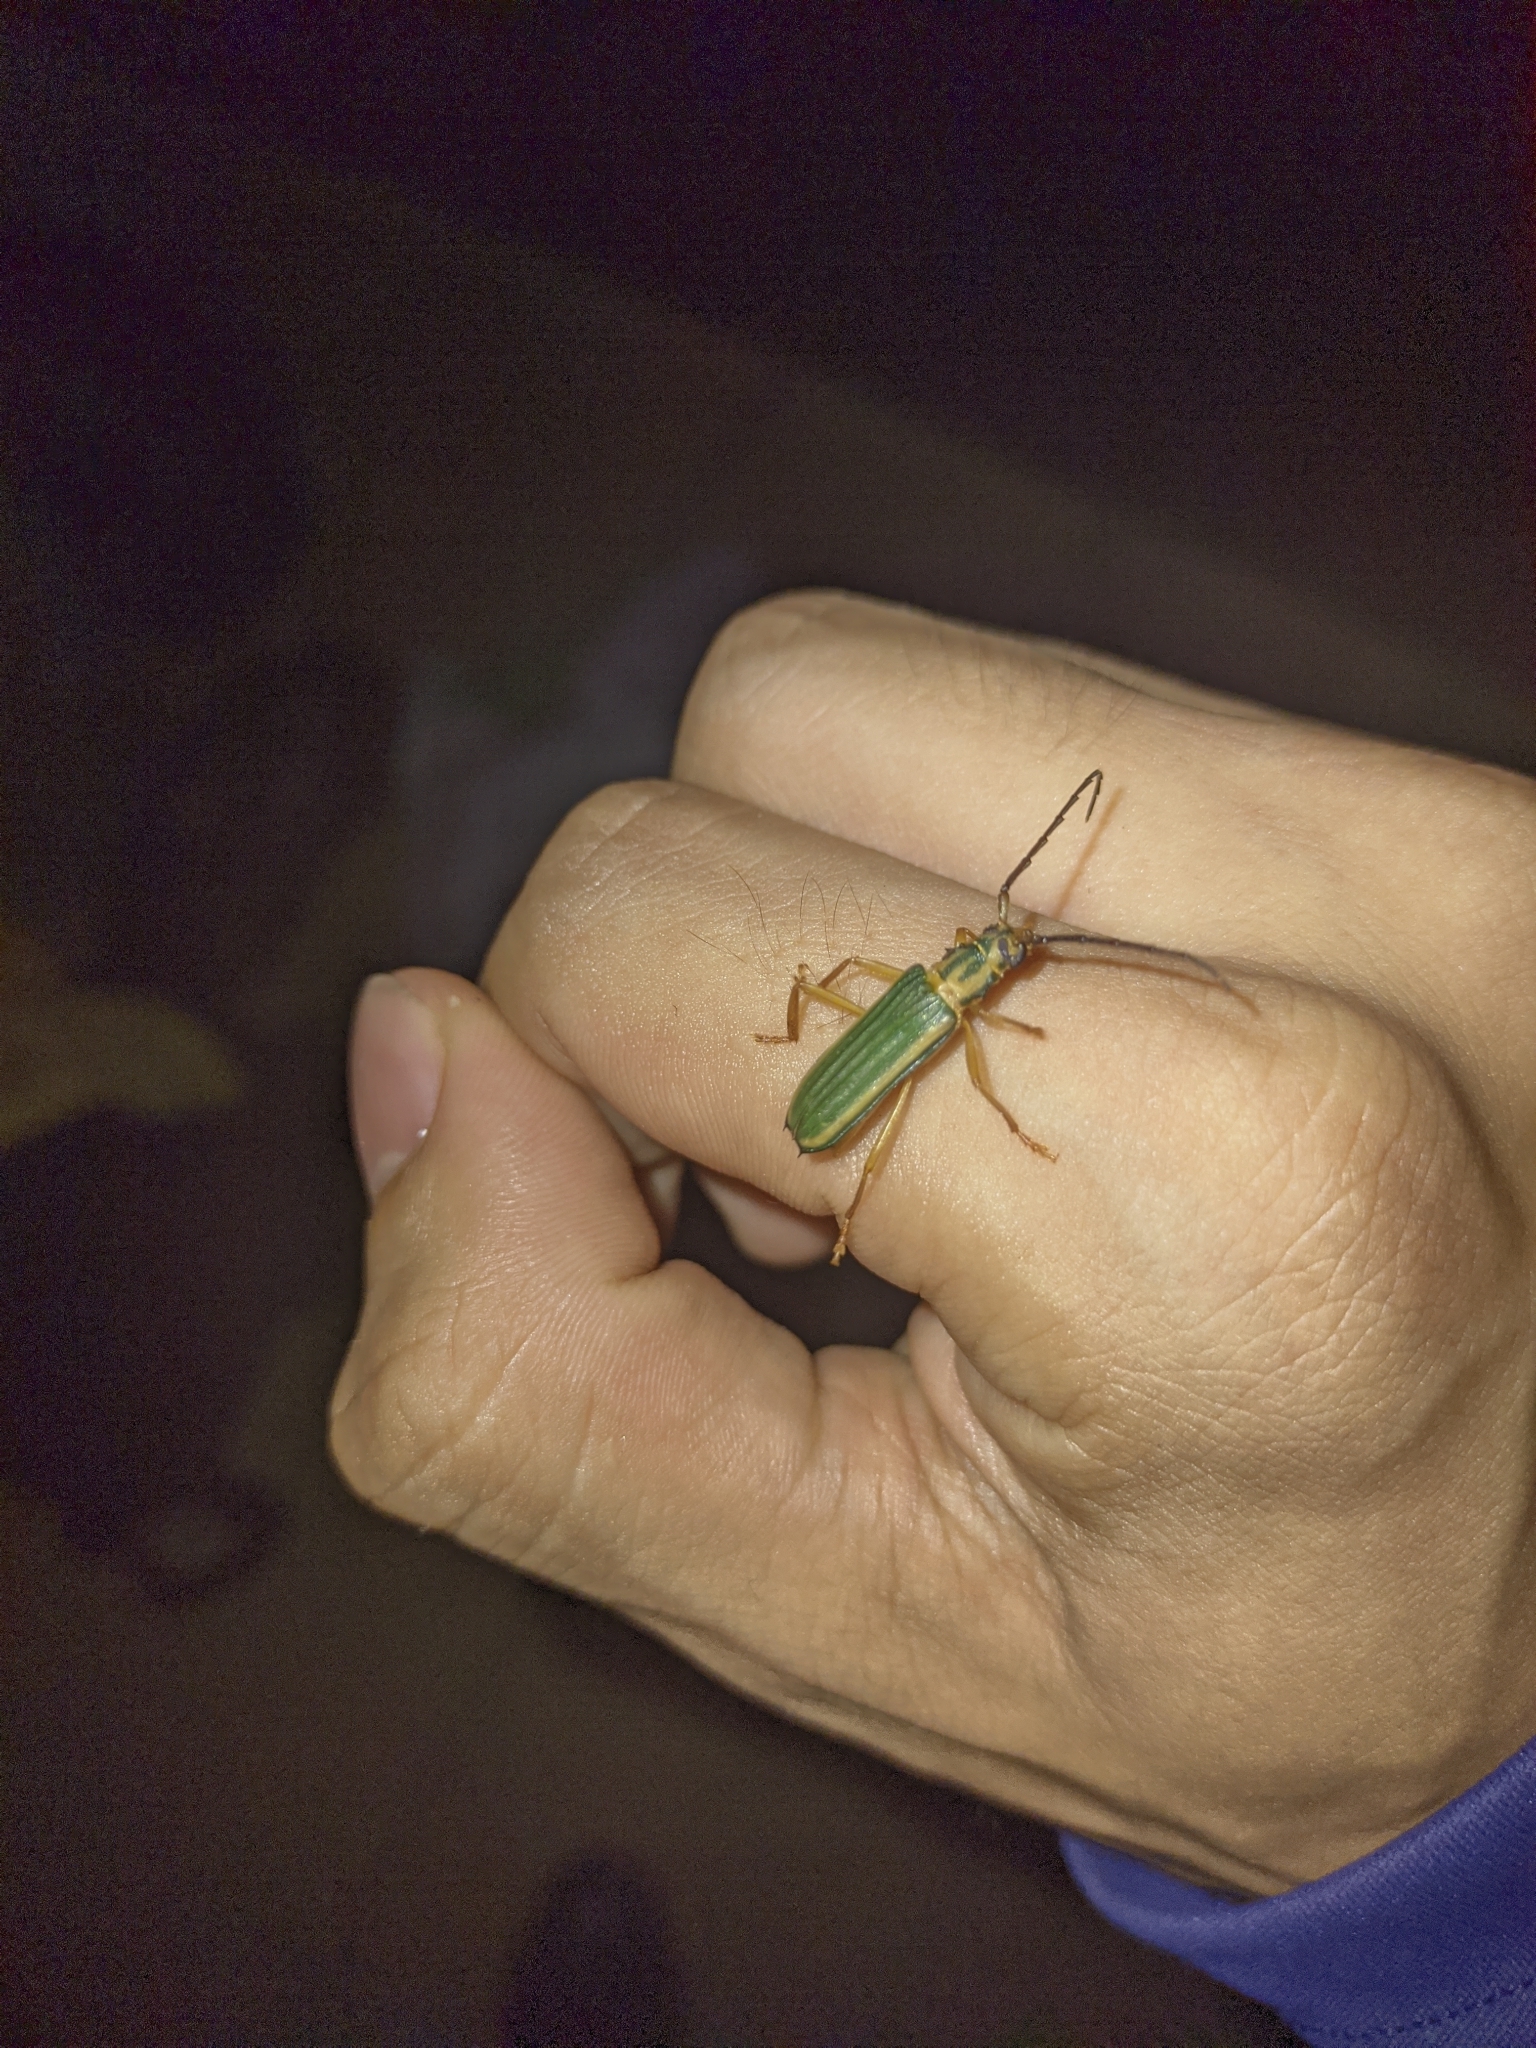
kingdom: Animalia
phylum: Arthropoda
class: Insecta
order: Coleoptera
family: Cerambycidae
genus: Chlorida
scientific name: Chlorida festiva
